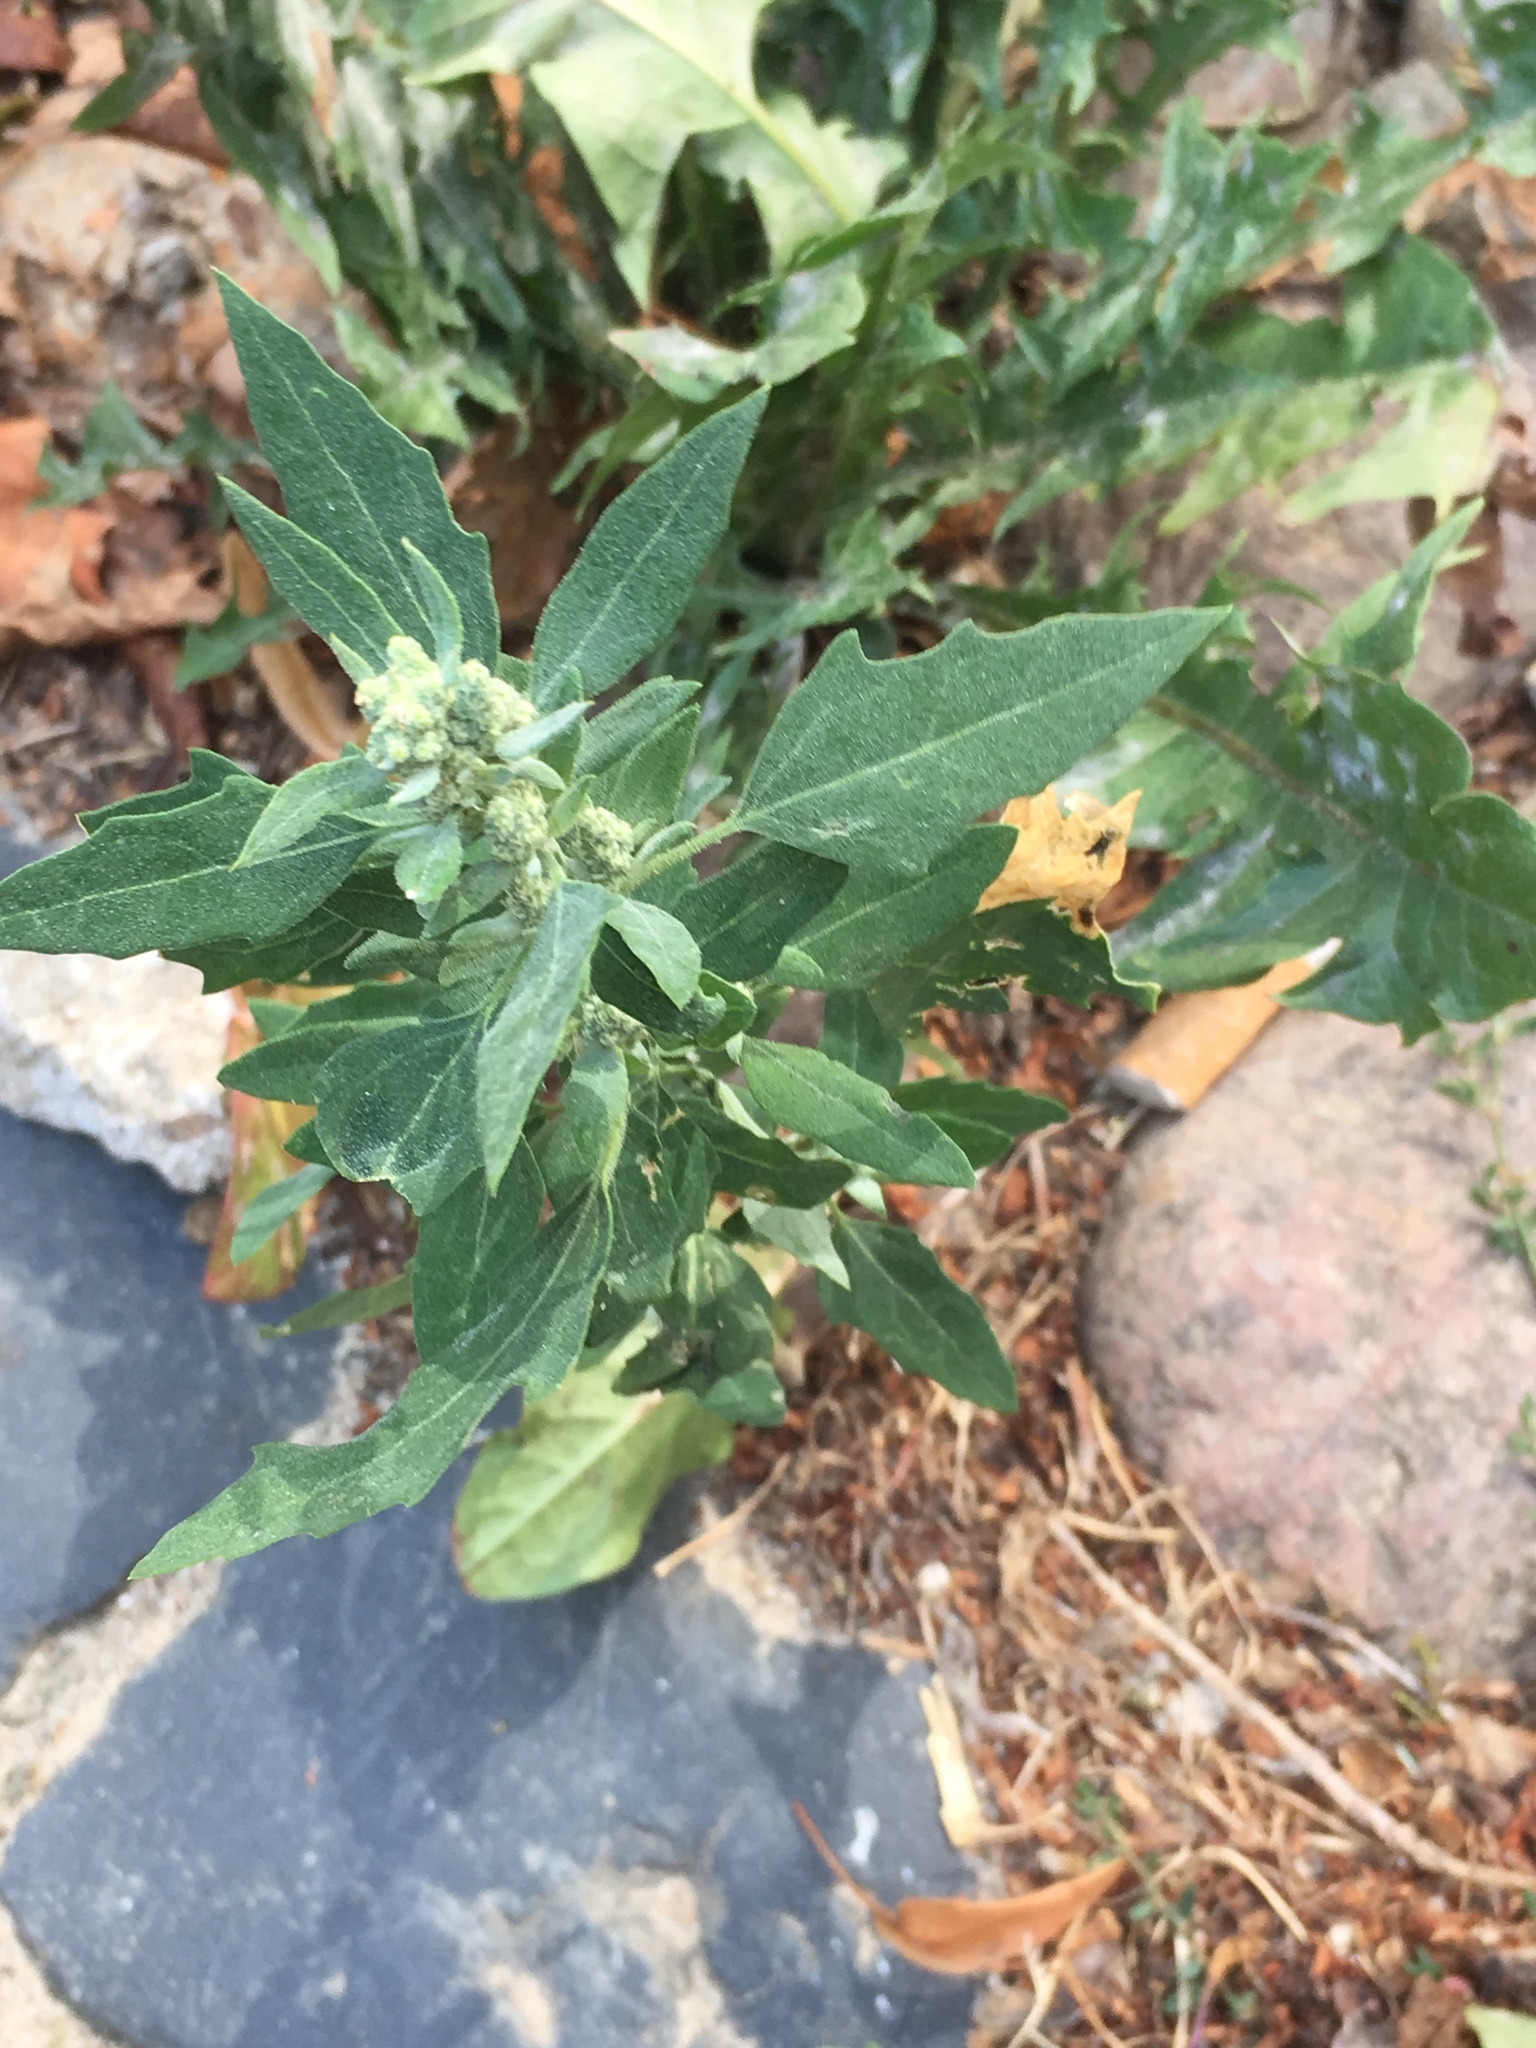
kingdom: Plantae
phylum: Tracheophyta
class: Magnoliopsida
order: Caryophyllales
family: Amaranthaceae
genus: Chenopodium
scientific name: Chenopodium album
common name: Fat-hen
